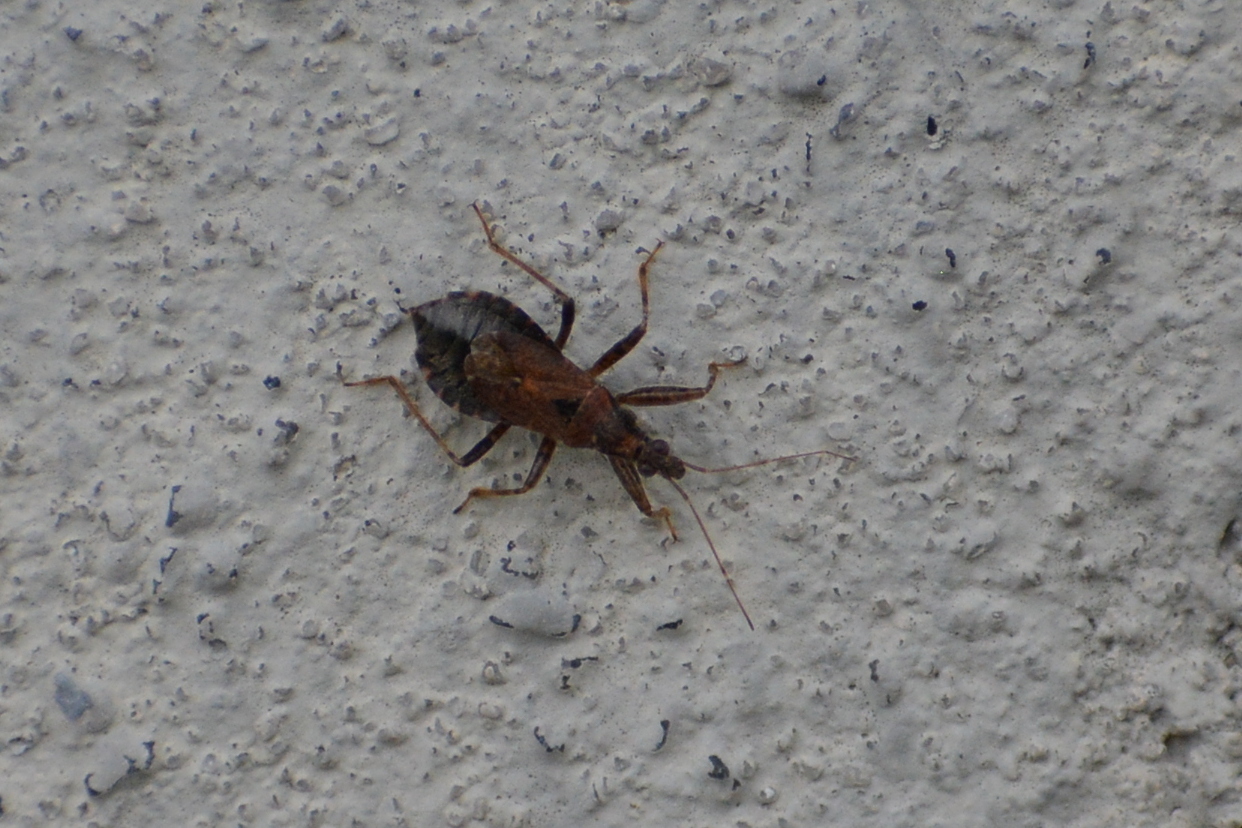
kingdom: Animalia
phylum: Arthropoda
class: Insecta
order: Hemiptera
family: Nabidae
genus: Himacerus
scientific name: Himacerus mirmicoides
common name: Ant damsel bug
